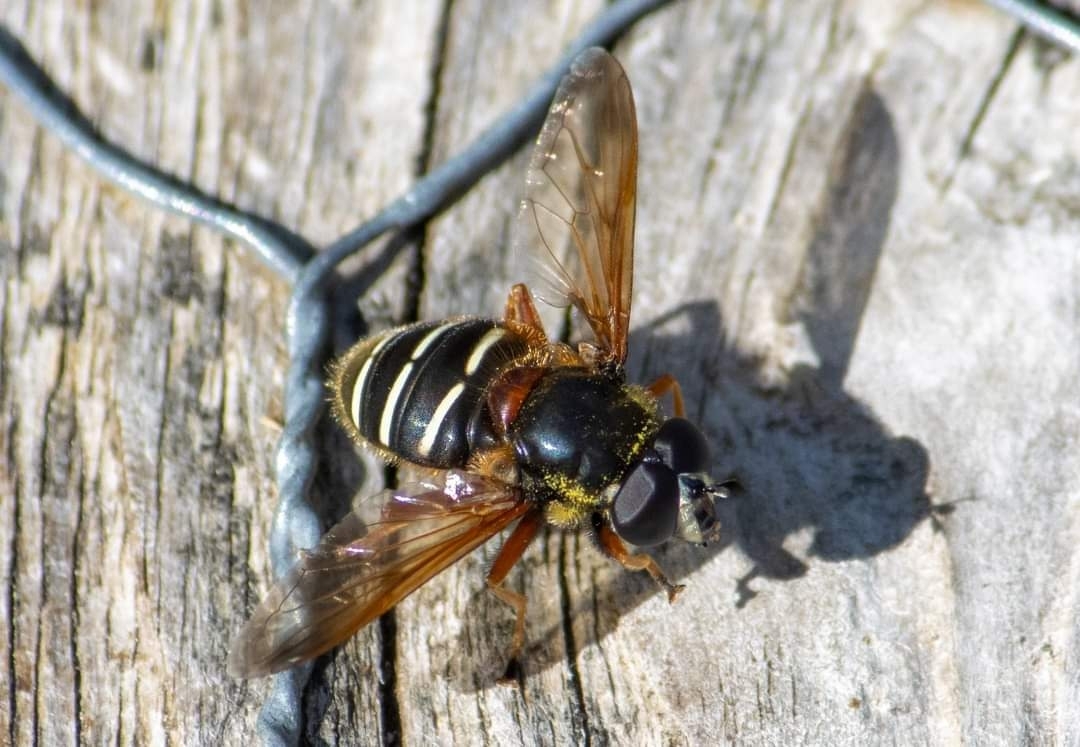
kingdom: Animalia
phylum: Arthropoda
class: Insecta
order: Diptera
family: Syrphidae
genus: Sericomyia
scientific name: Sericomyia lappona
